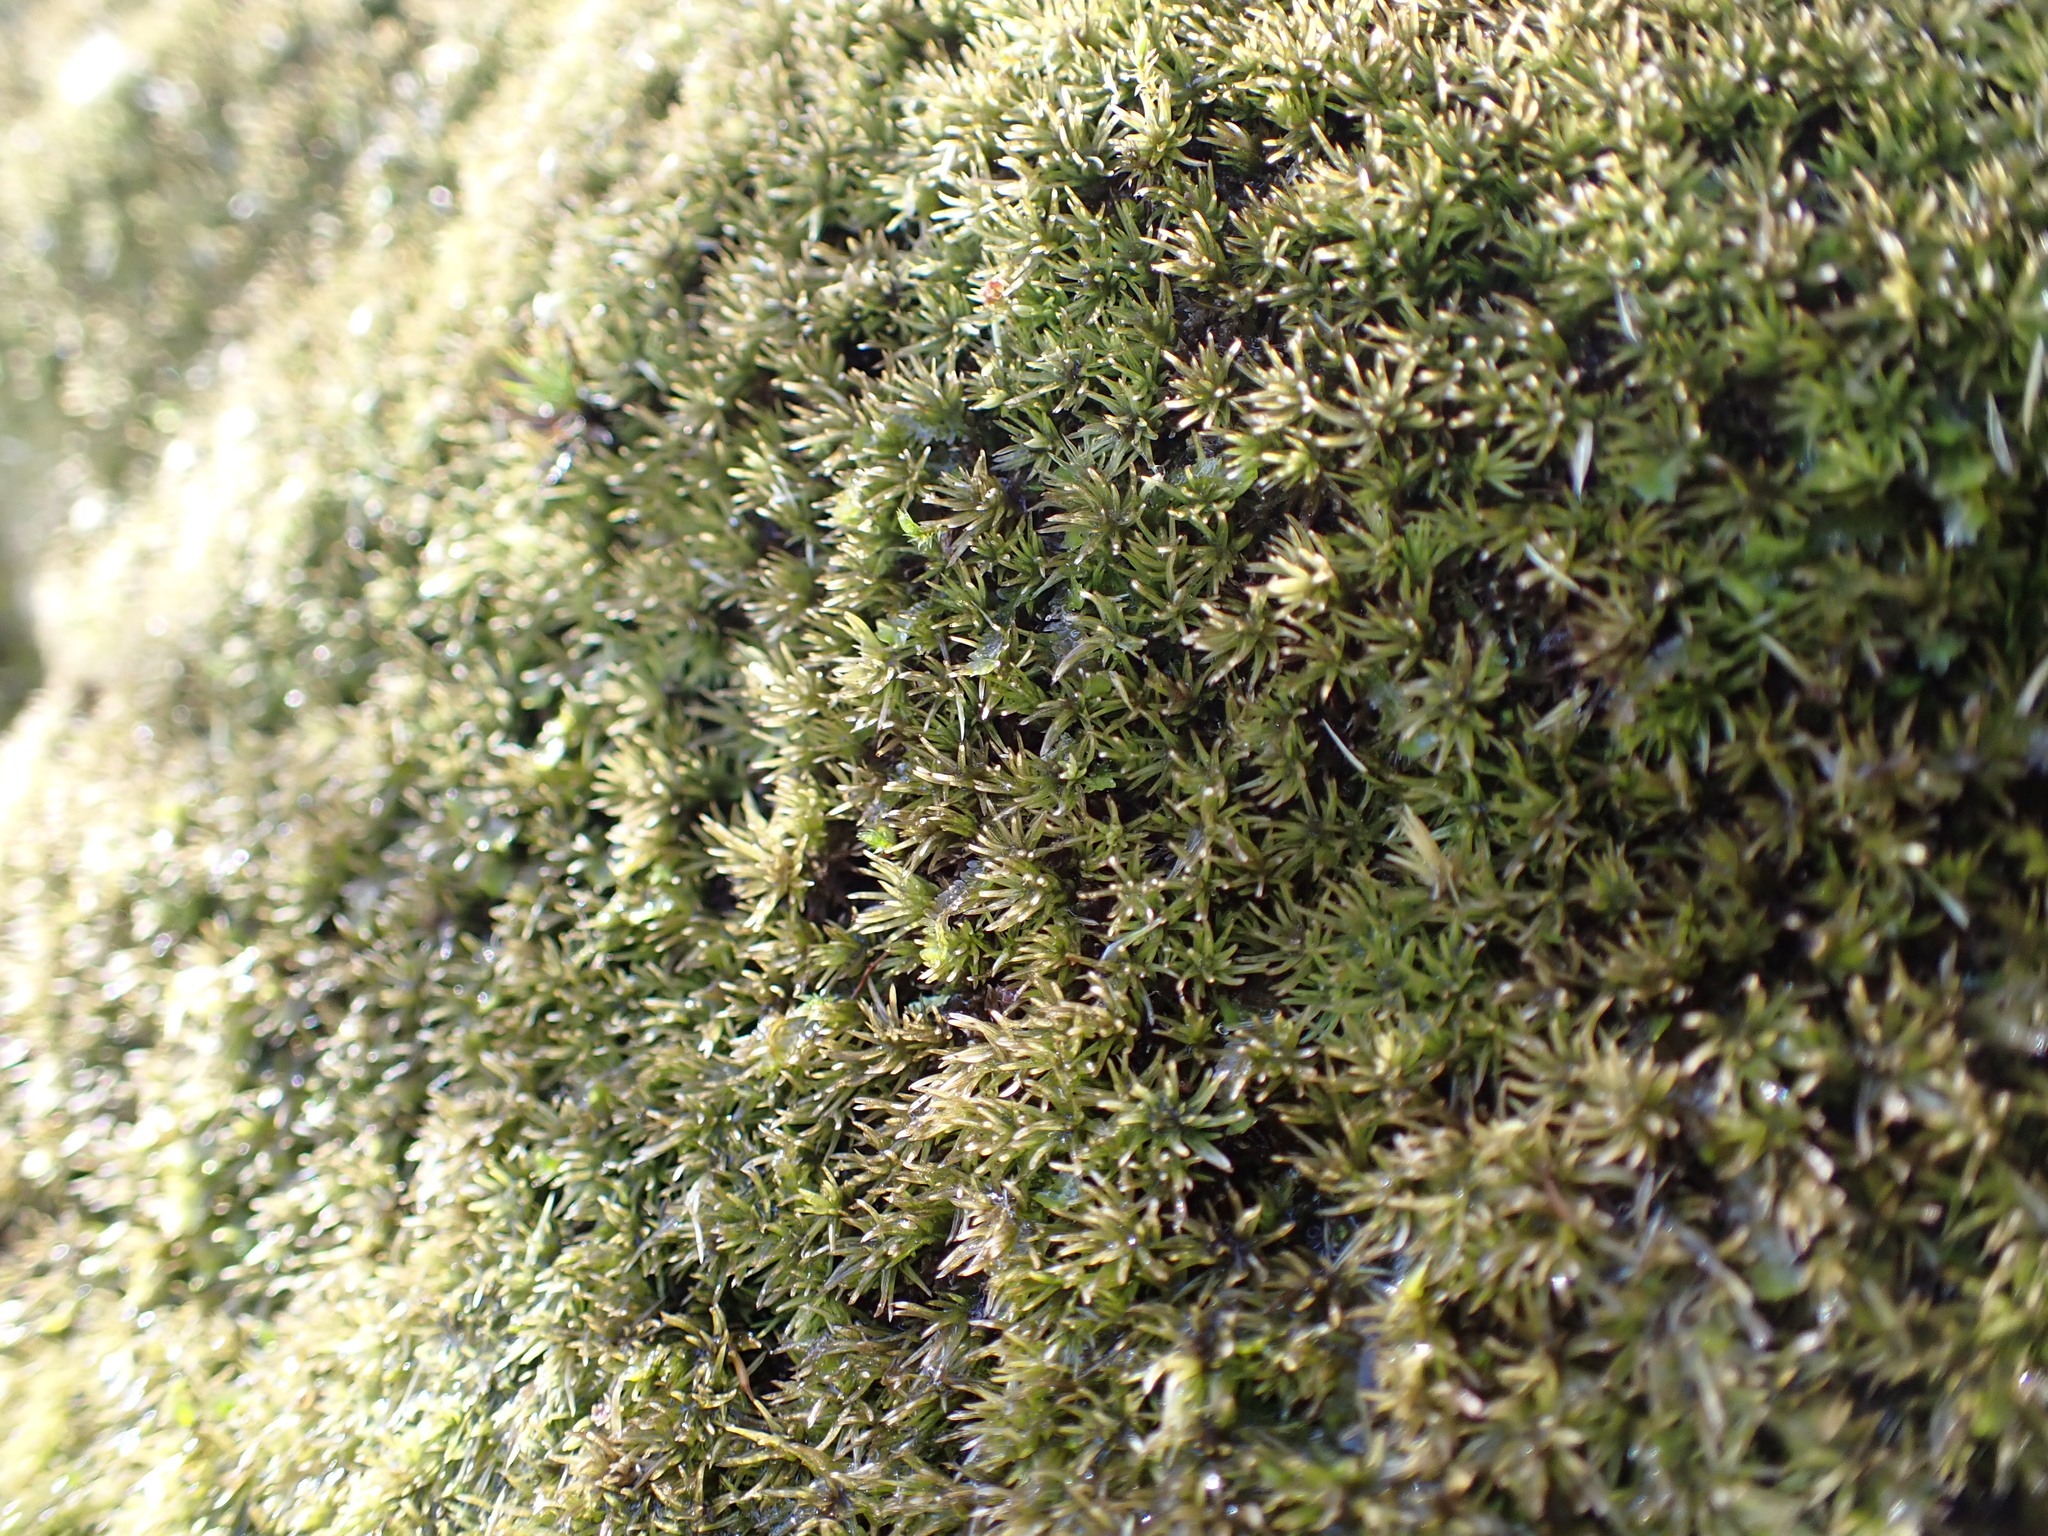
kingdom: Plantae
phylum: Bryophyta
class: Bryopsida
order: Dicranales
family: Leucobryaceae
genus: Leucobryum
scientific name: Leucobryum albidum
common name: White moss
